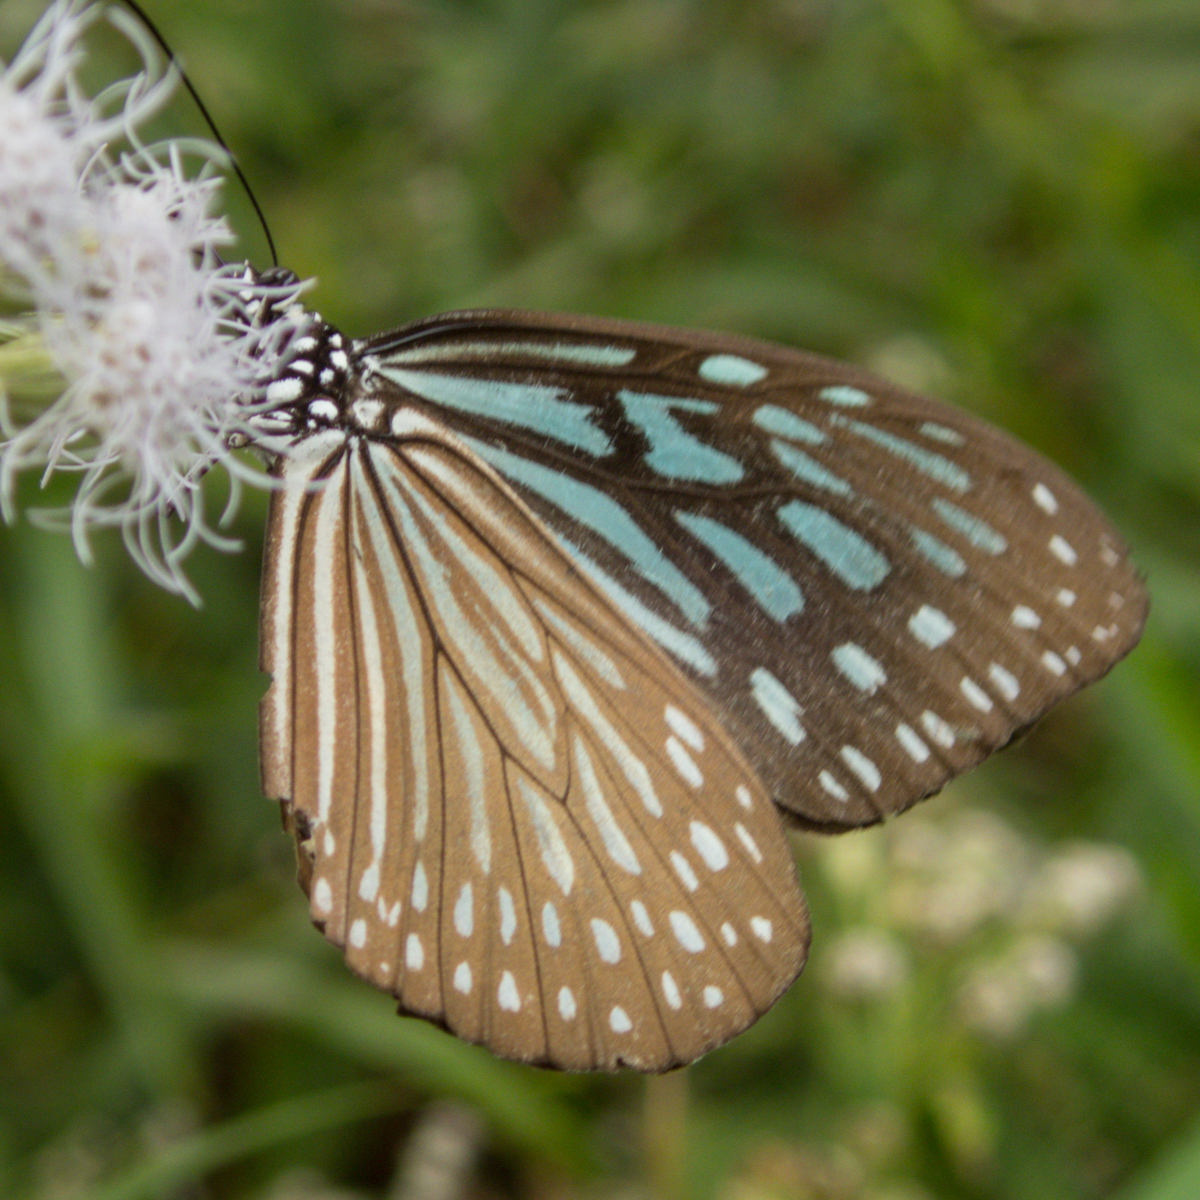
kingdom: Animalia
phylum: Arthropoda
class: Insecta
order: Lepidoptera
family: Nymphalidae
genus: Ideopsis
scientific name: Ideopsis vulgaris
